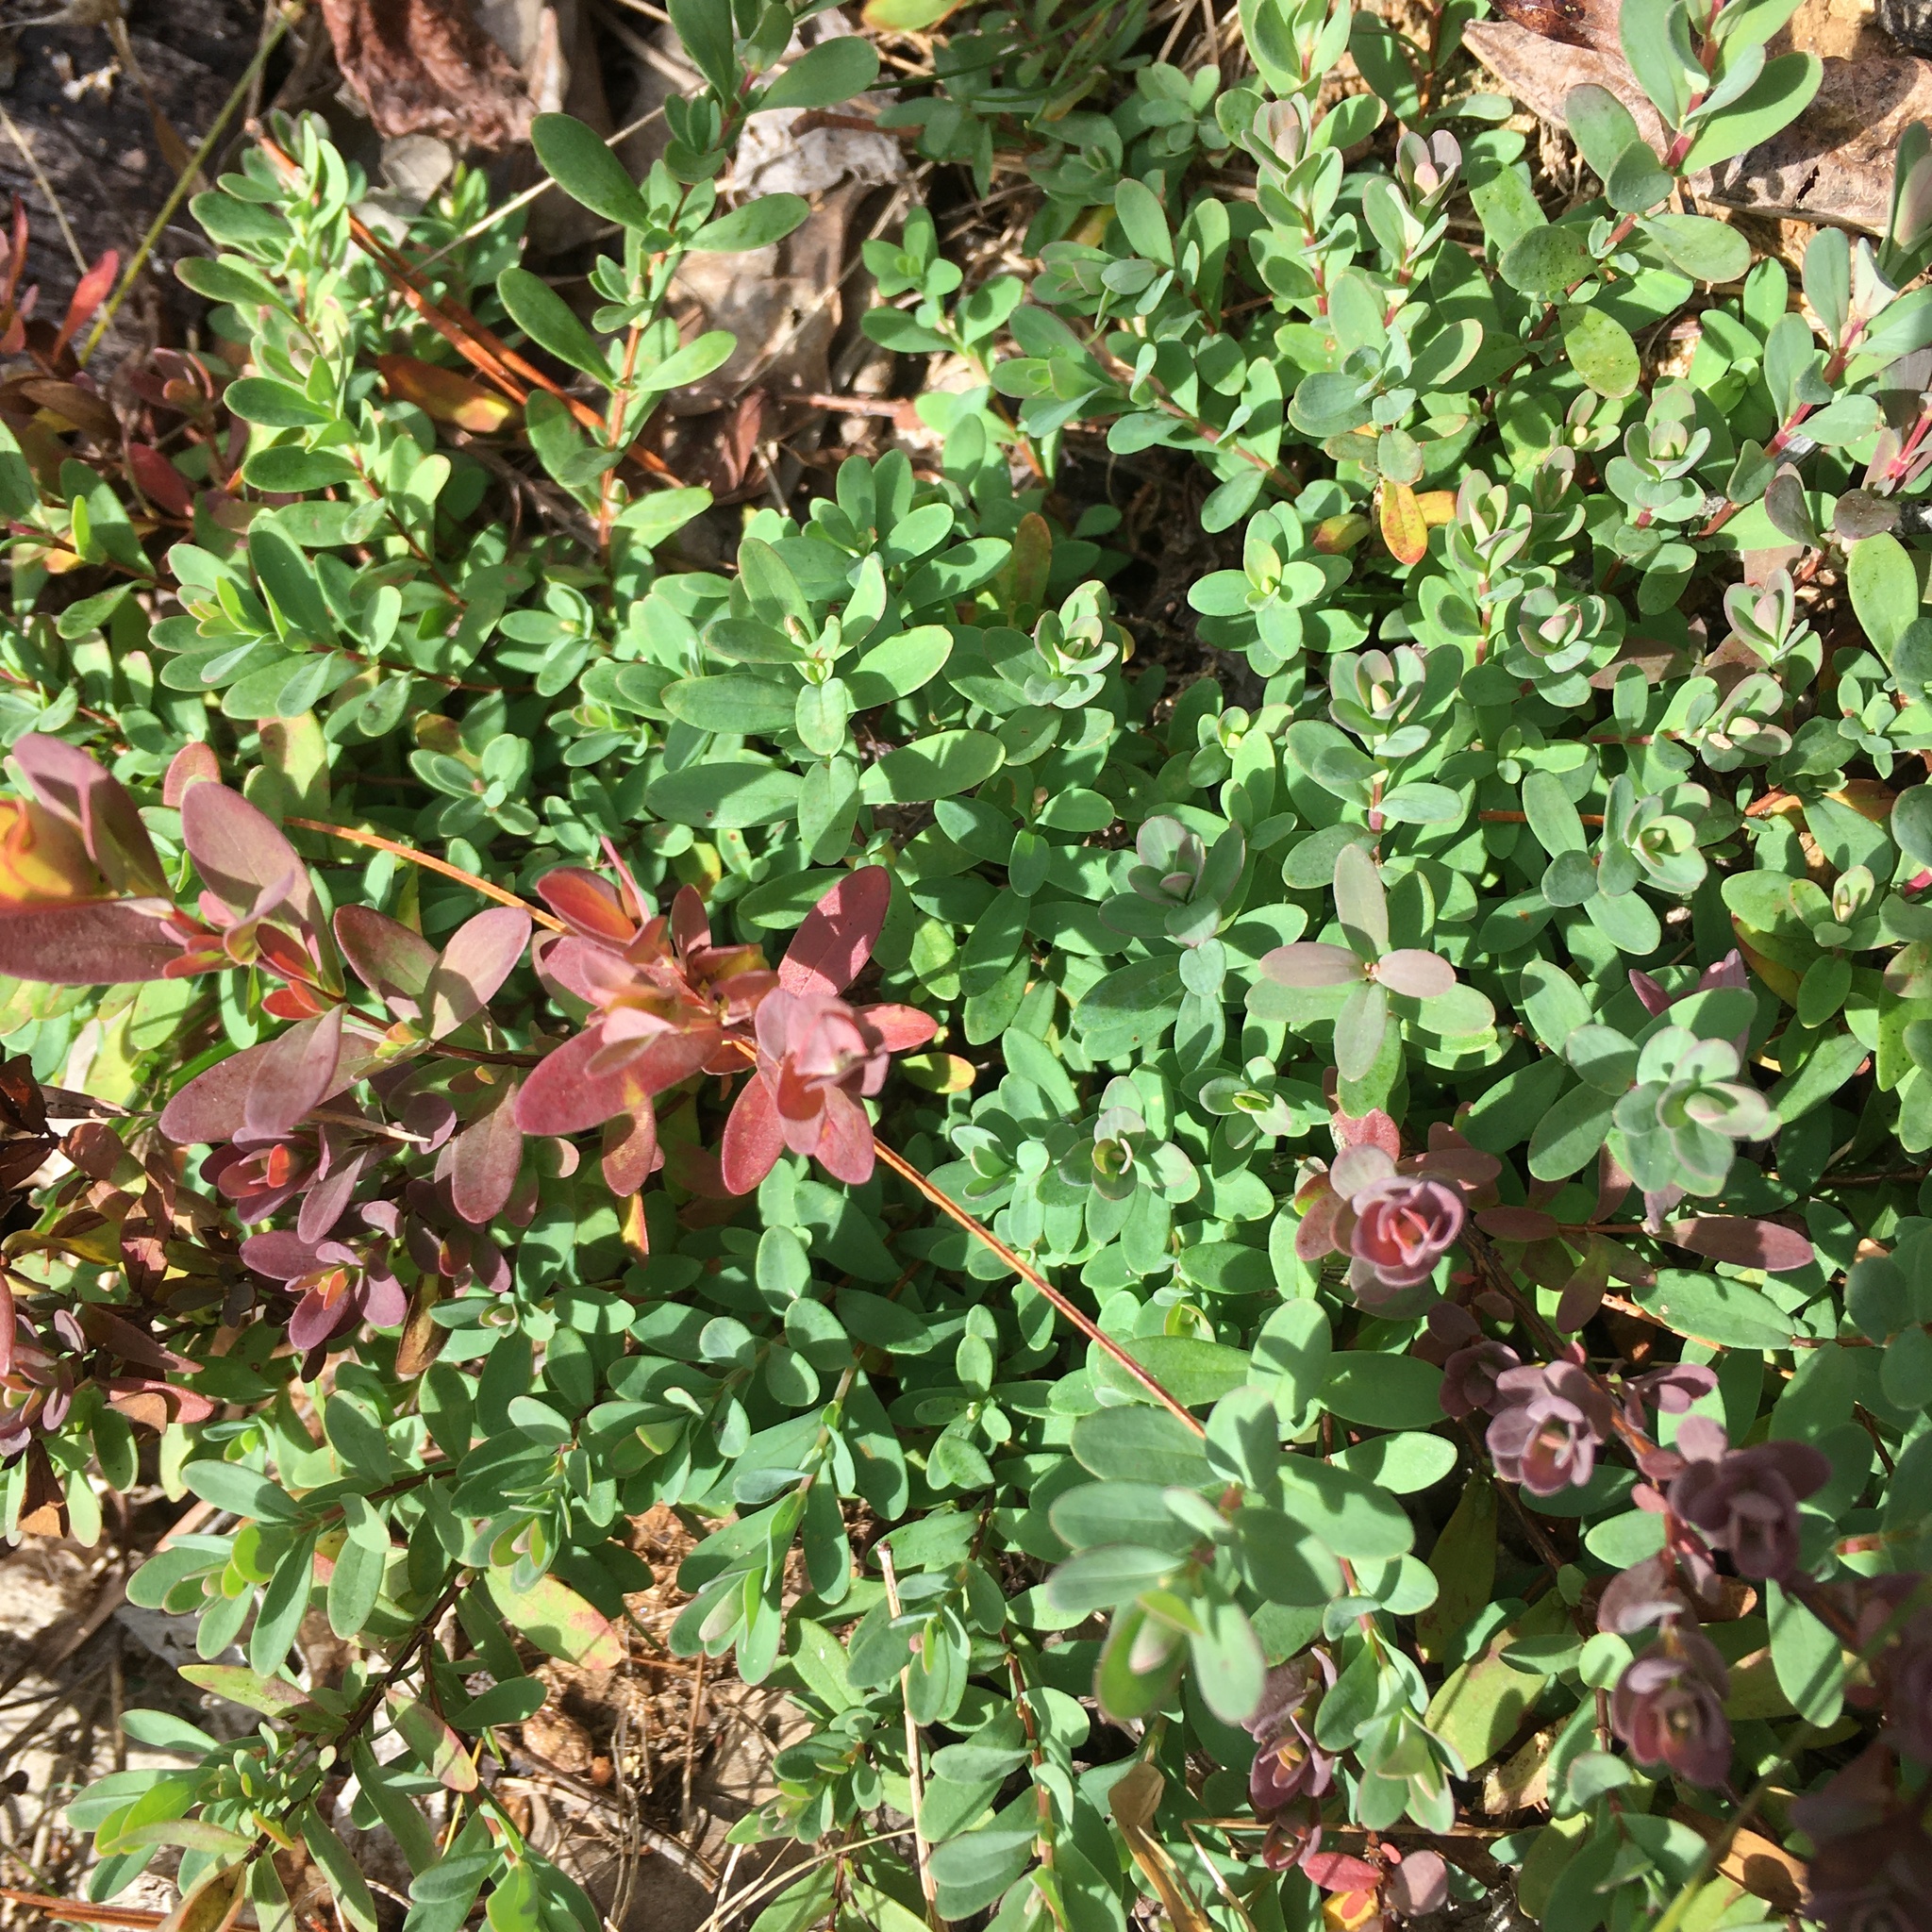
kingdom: Plantae
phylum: Tracheophyta
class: Magnoliopsida
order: Malpighiales
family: Hypericaceae
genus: Hypericum
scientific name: Hypericum hypericoides
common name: St. andrew's cross
